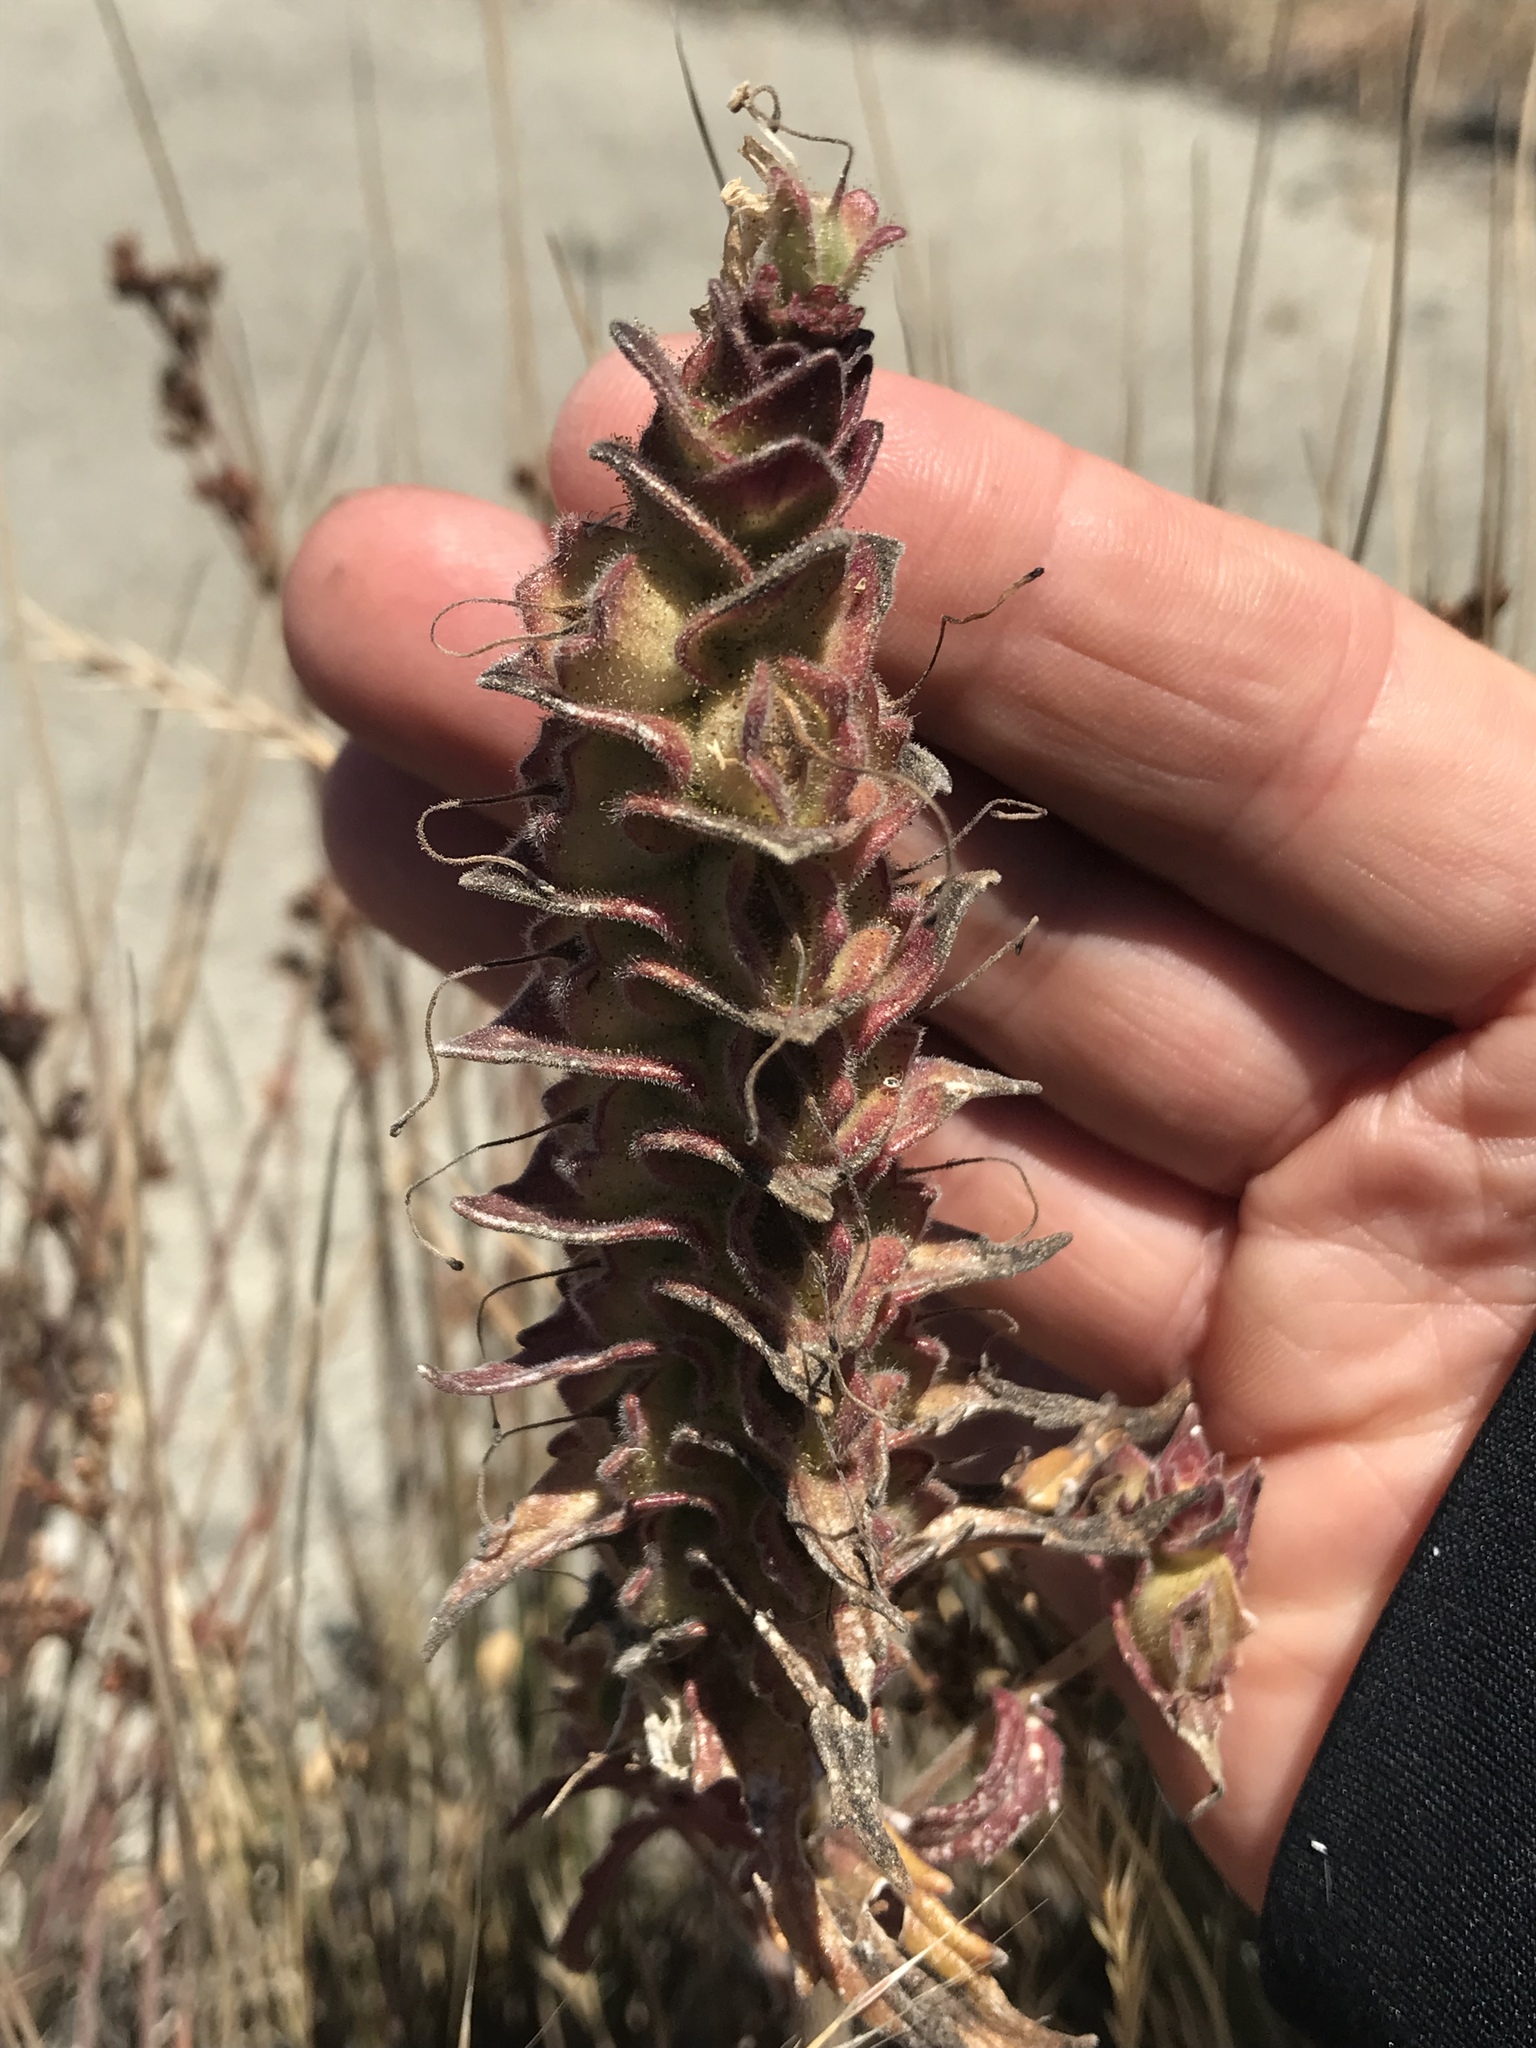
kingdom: Plantae
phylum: Tracheophyta
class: Magnoliopsida
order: Lamiales
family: Orobanchaceae
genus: Bellardia
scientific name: Bellardia trixago
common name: Mediterranean lineseed
